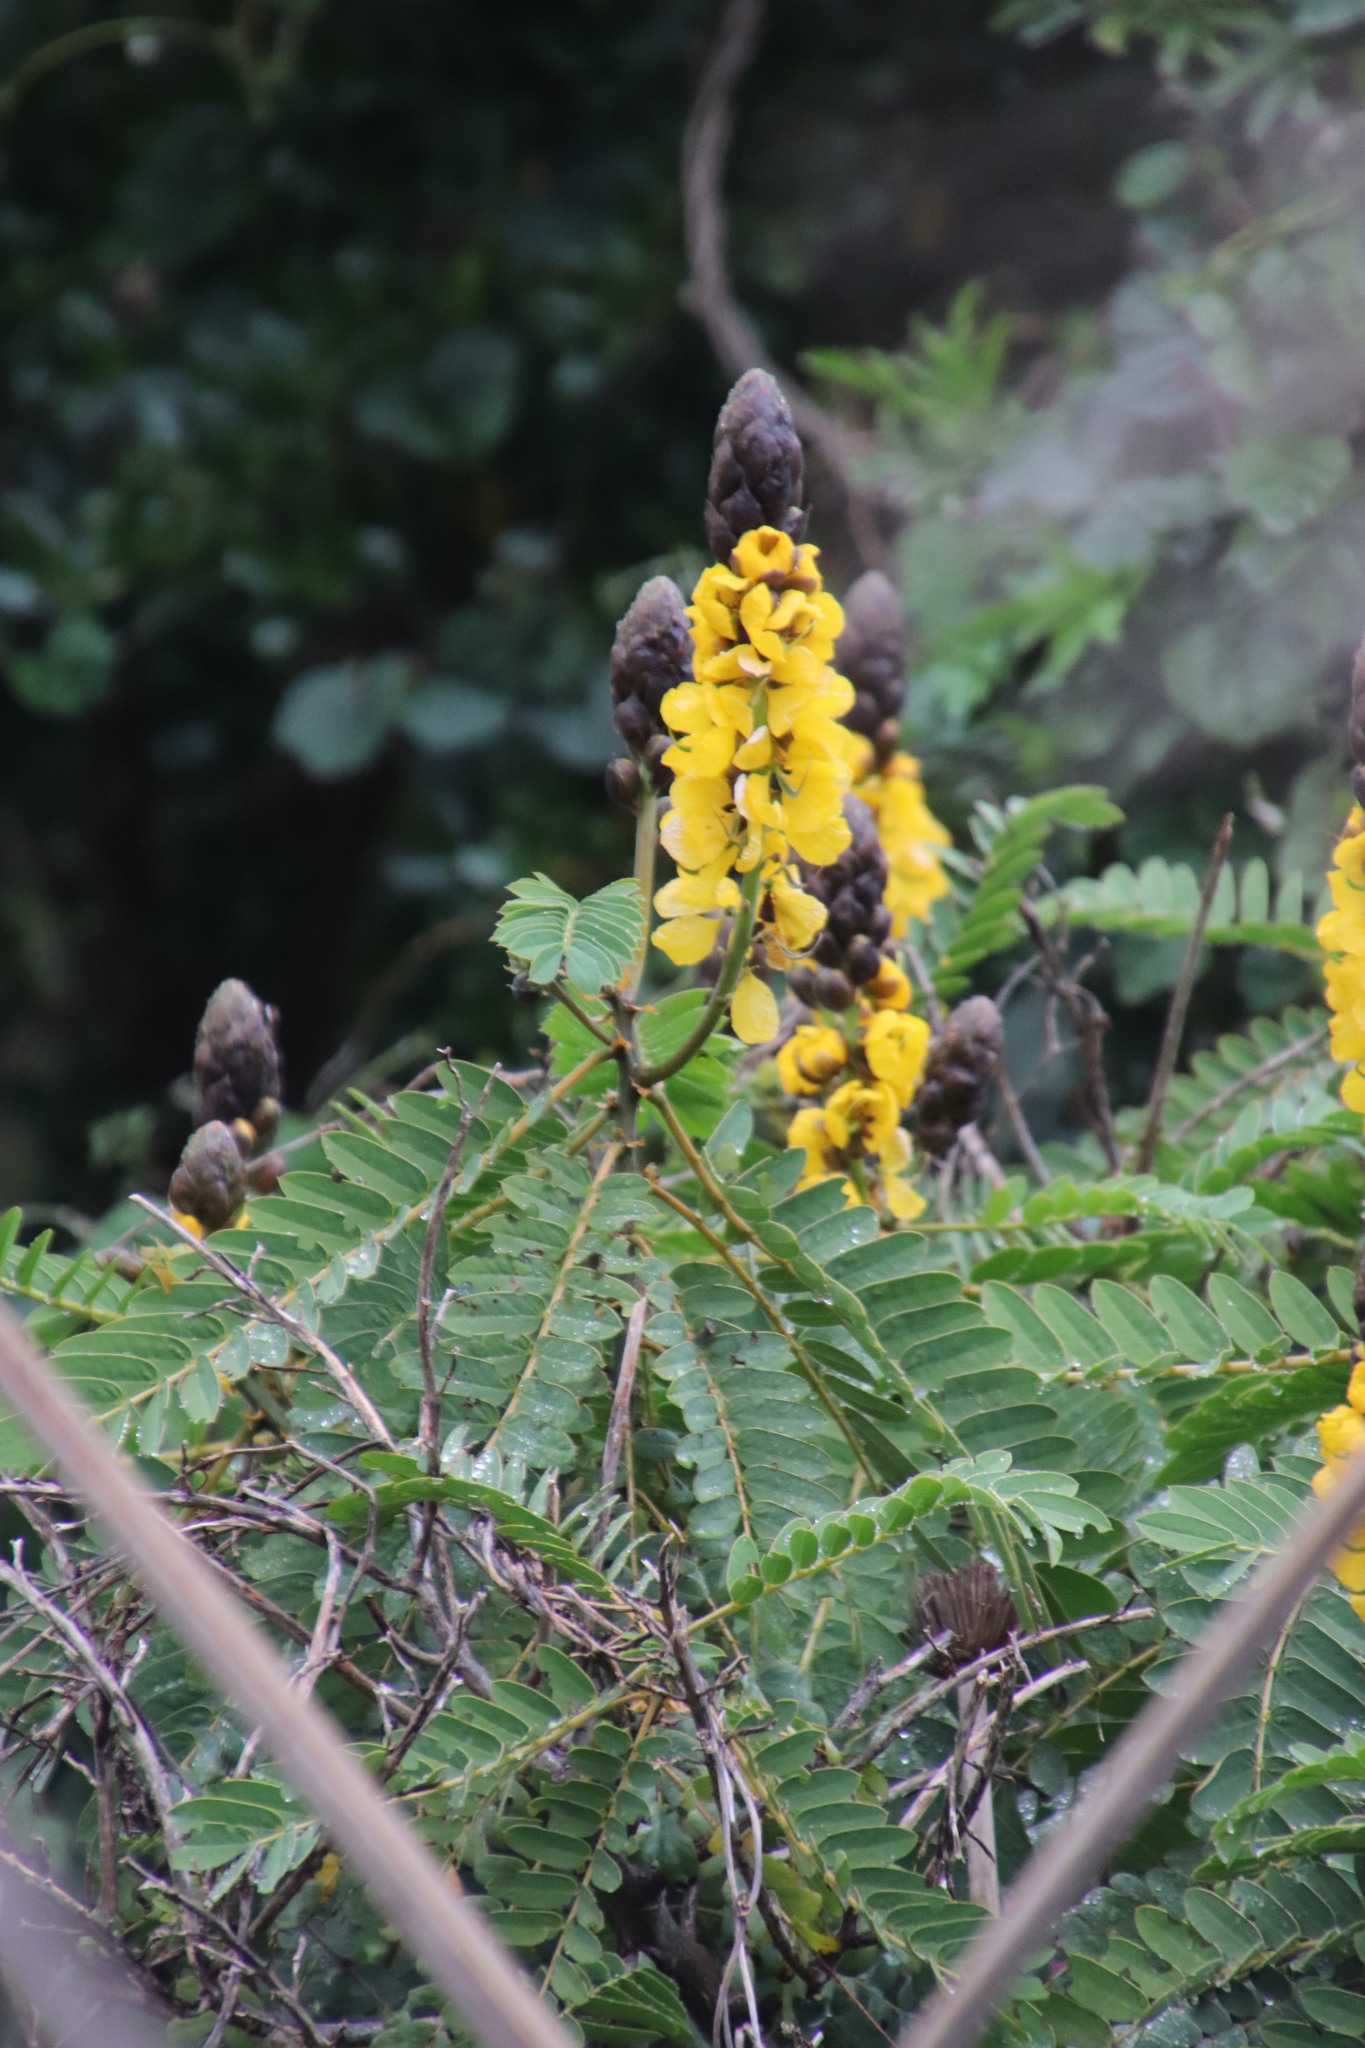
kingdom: Plantae
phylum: Tracheophyta
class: Magnoliopsida
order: Fabales
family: Fabaceae
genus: Senna
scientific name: Senna didymobotrya
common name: African senna
